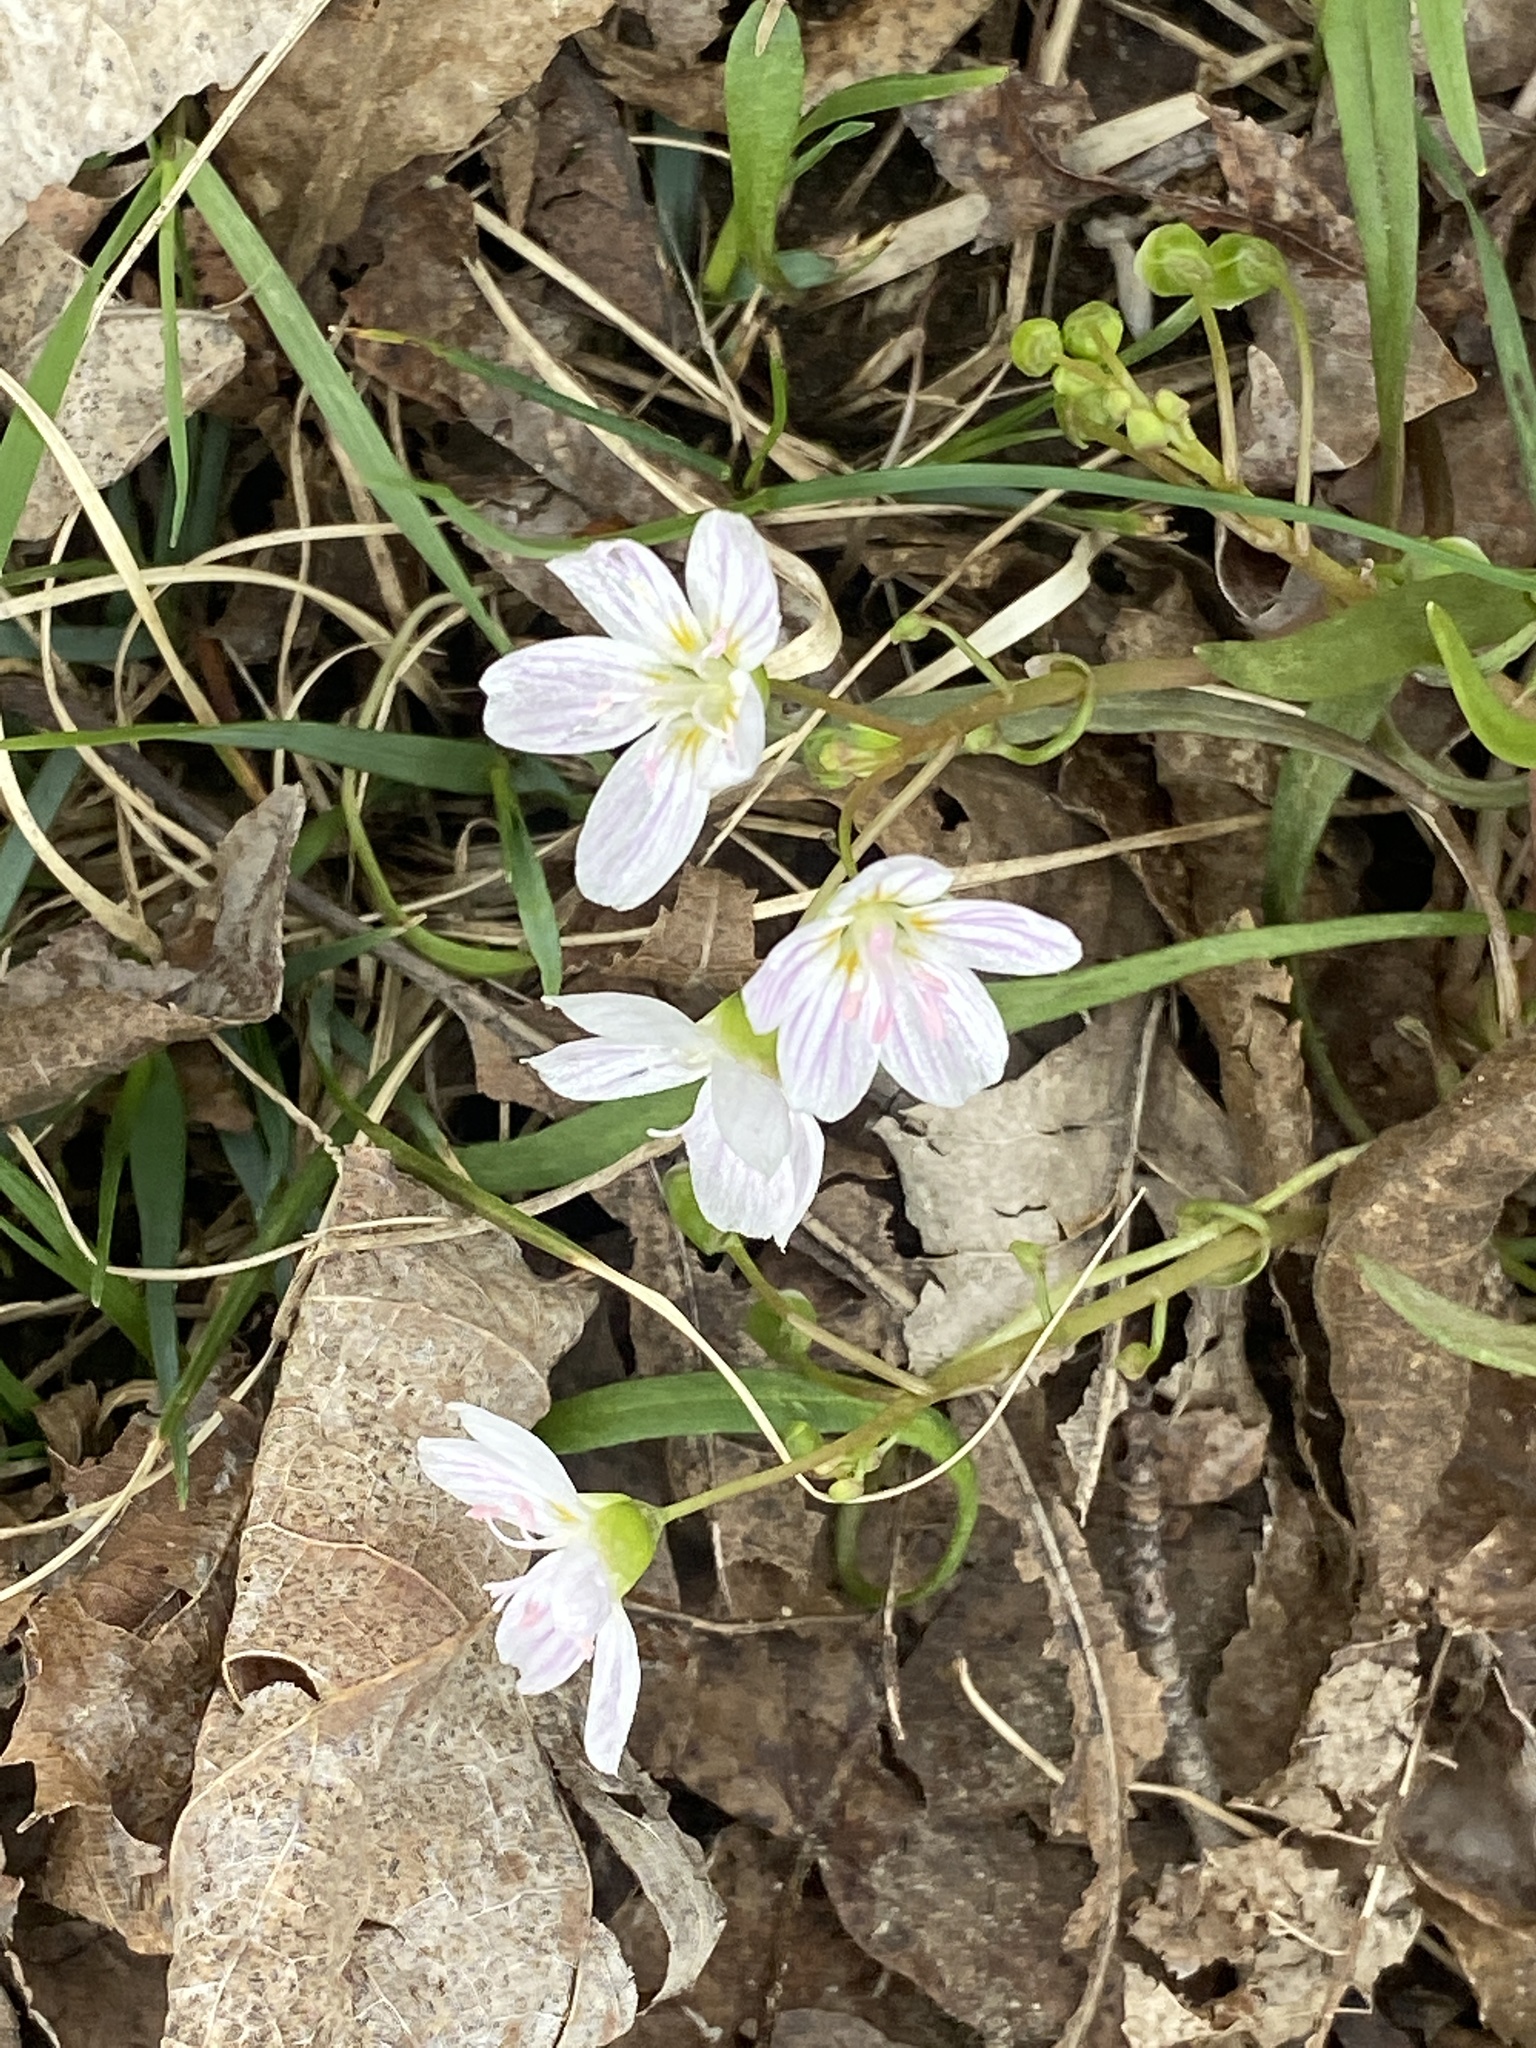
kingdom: Plantae
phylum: Tracheophyta
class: Magnoliopsida
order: Caryophyllales
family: Montiaceae
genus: Claytonia
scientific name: Claytonia virginica
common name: Virginia springbeauty
